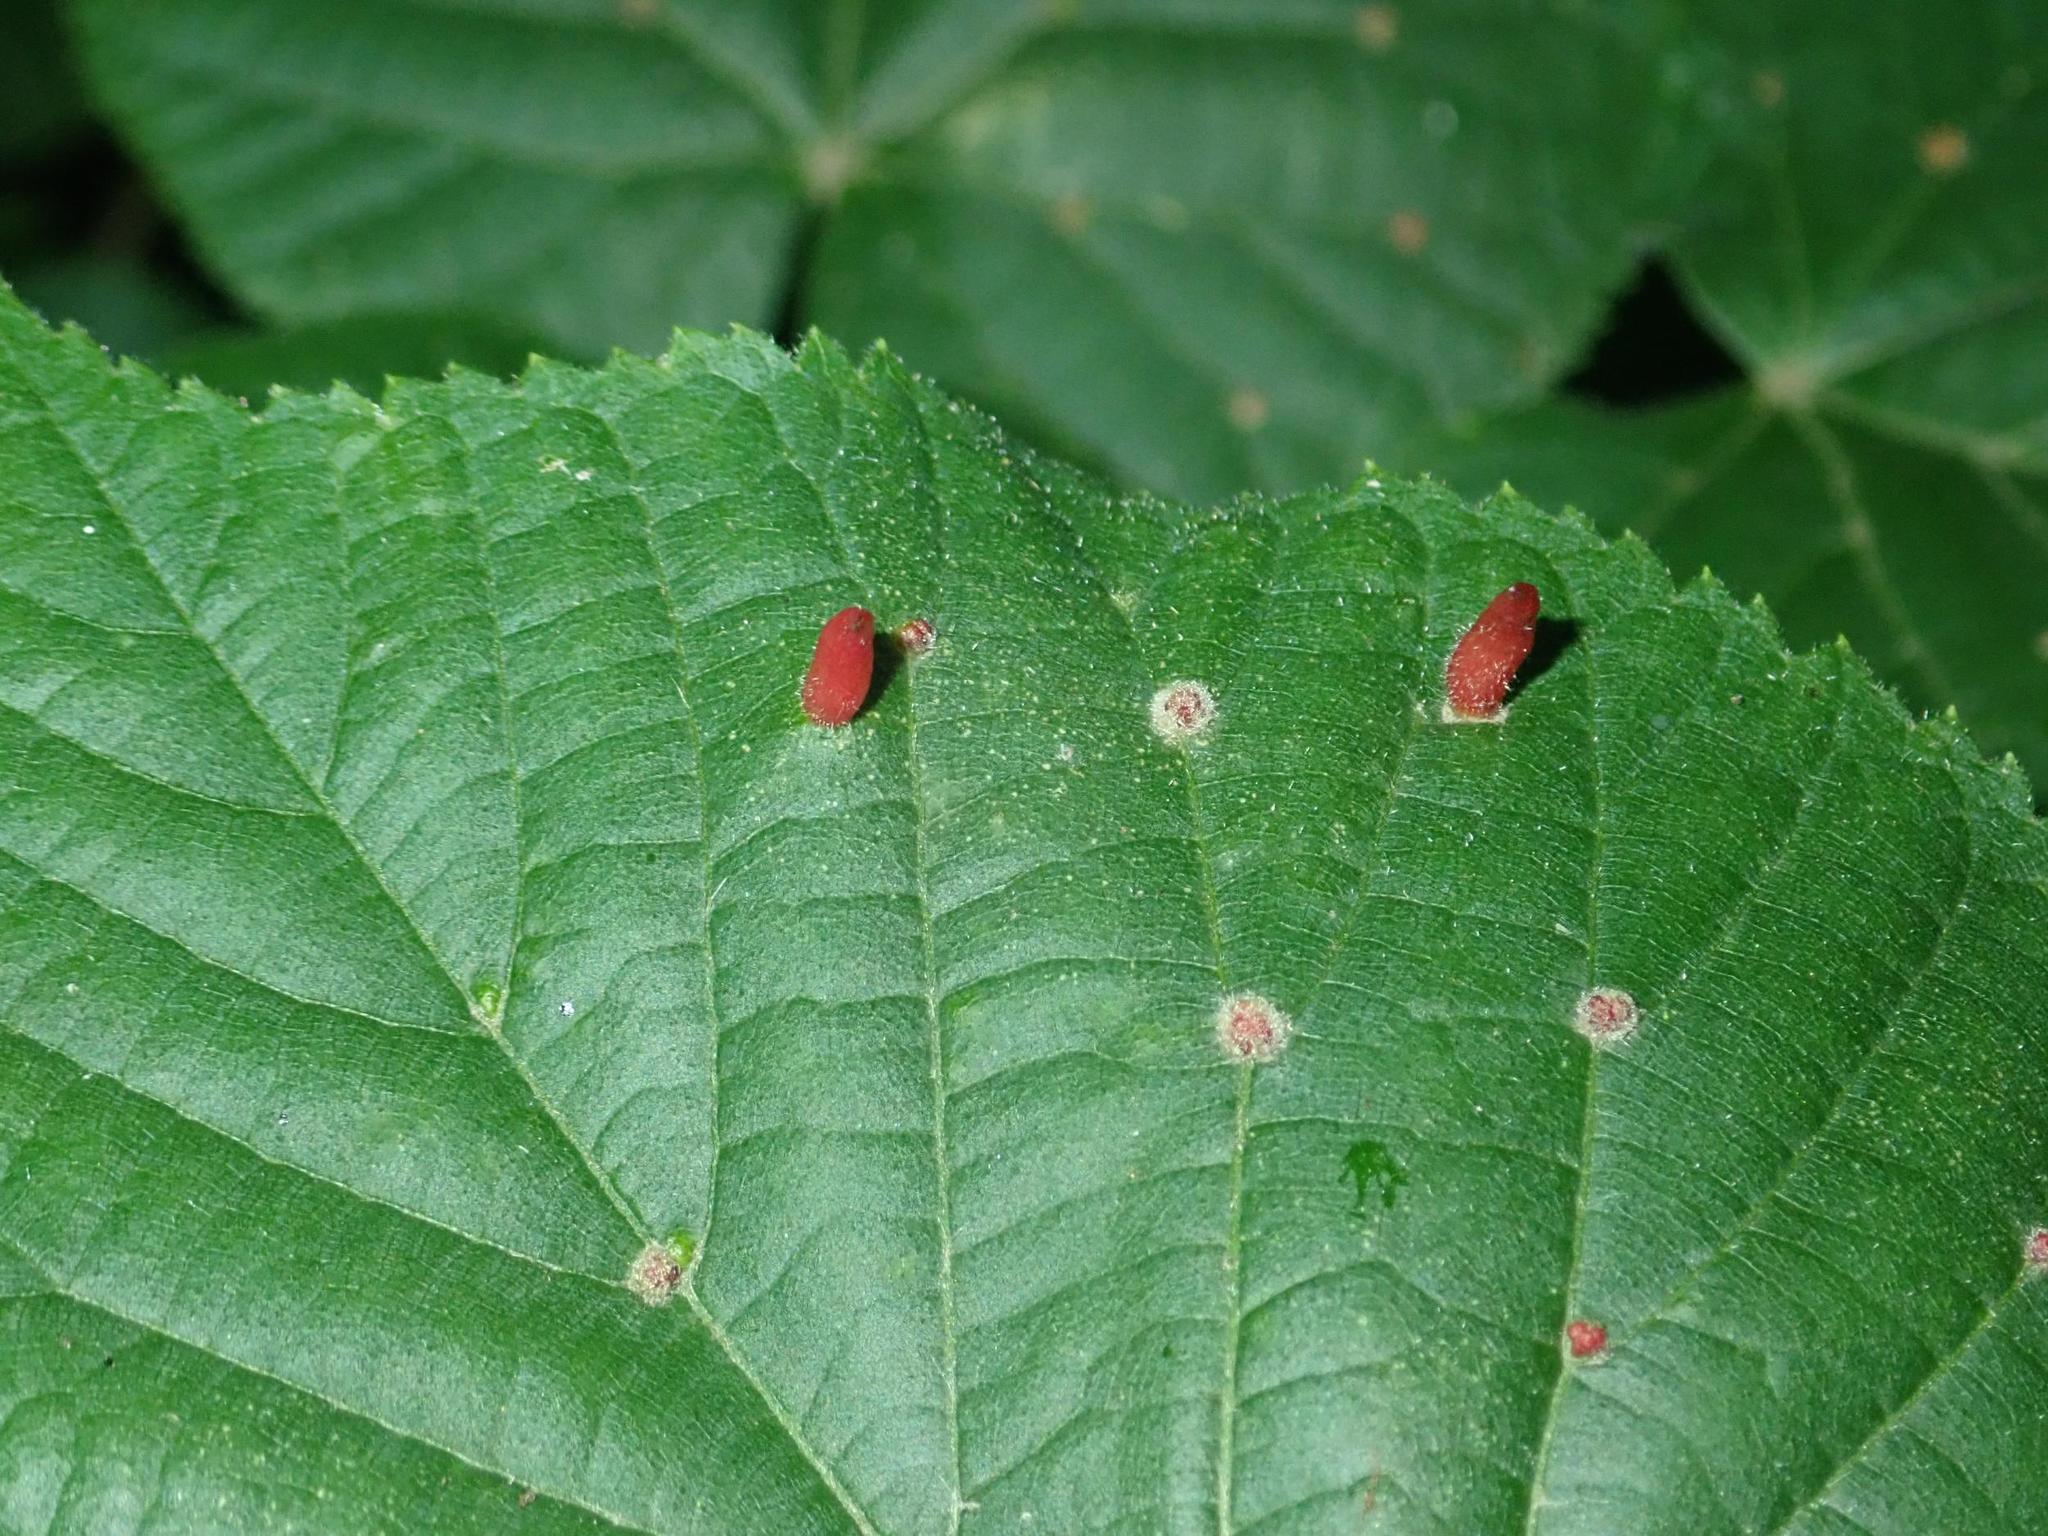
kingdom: Animalia
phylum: Arthropoda
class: Arachnida
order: Trombidiformes
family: Eriophyidae
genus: Eriophyes
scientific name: Eriophyes tiliae
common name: Red nail gall mite
